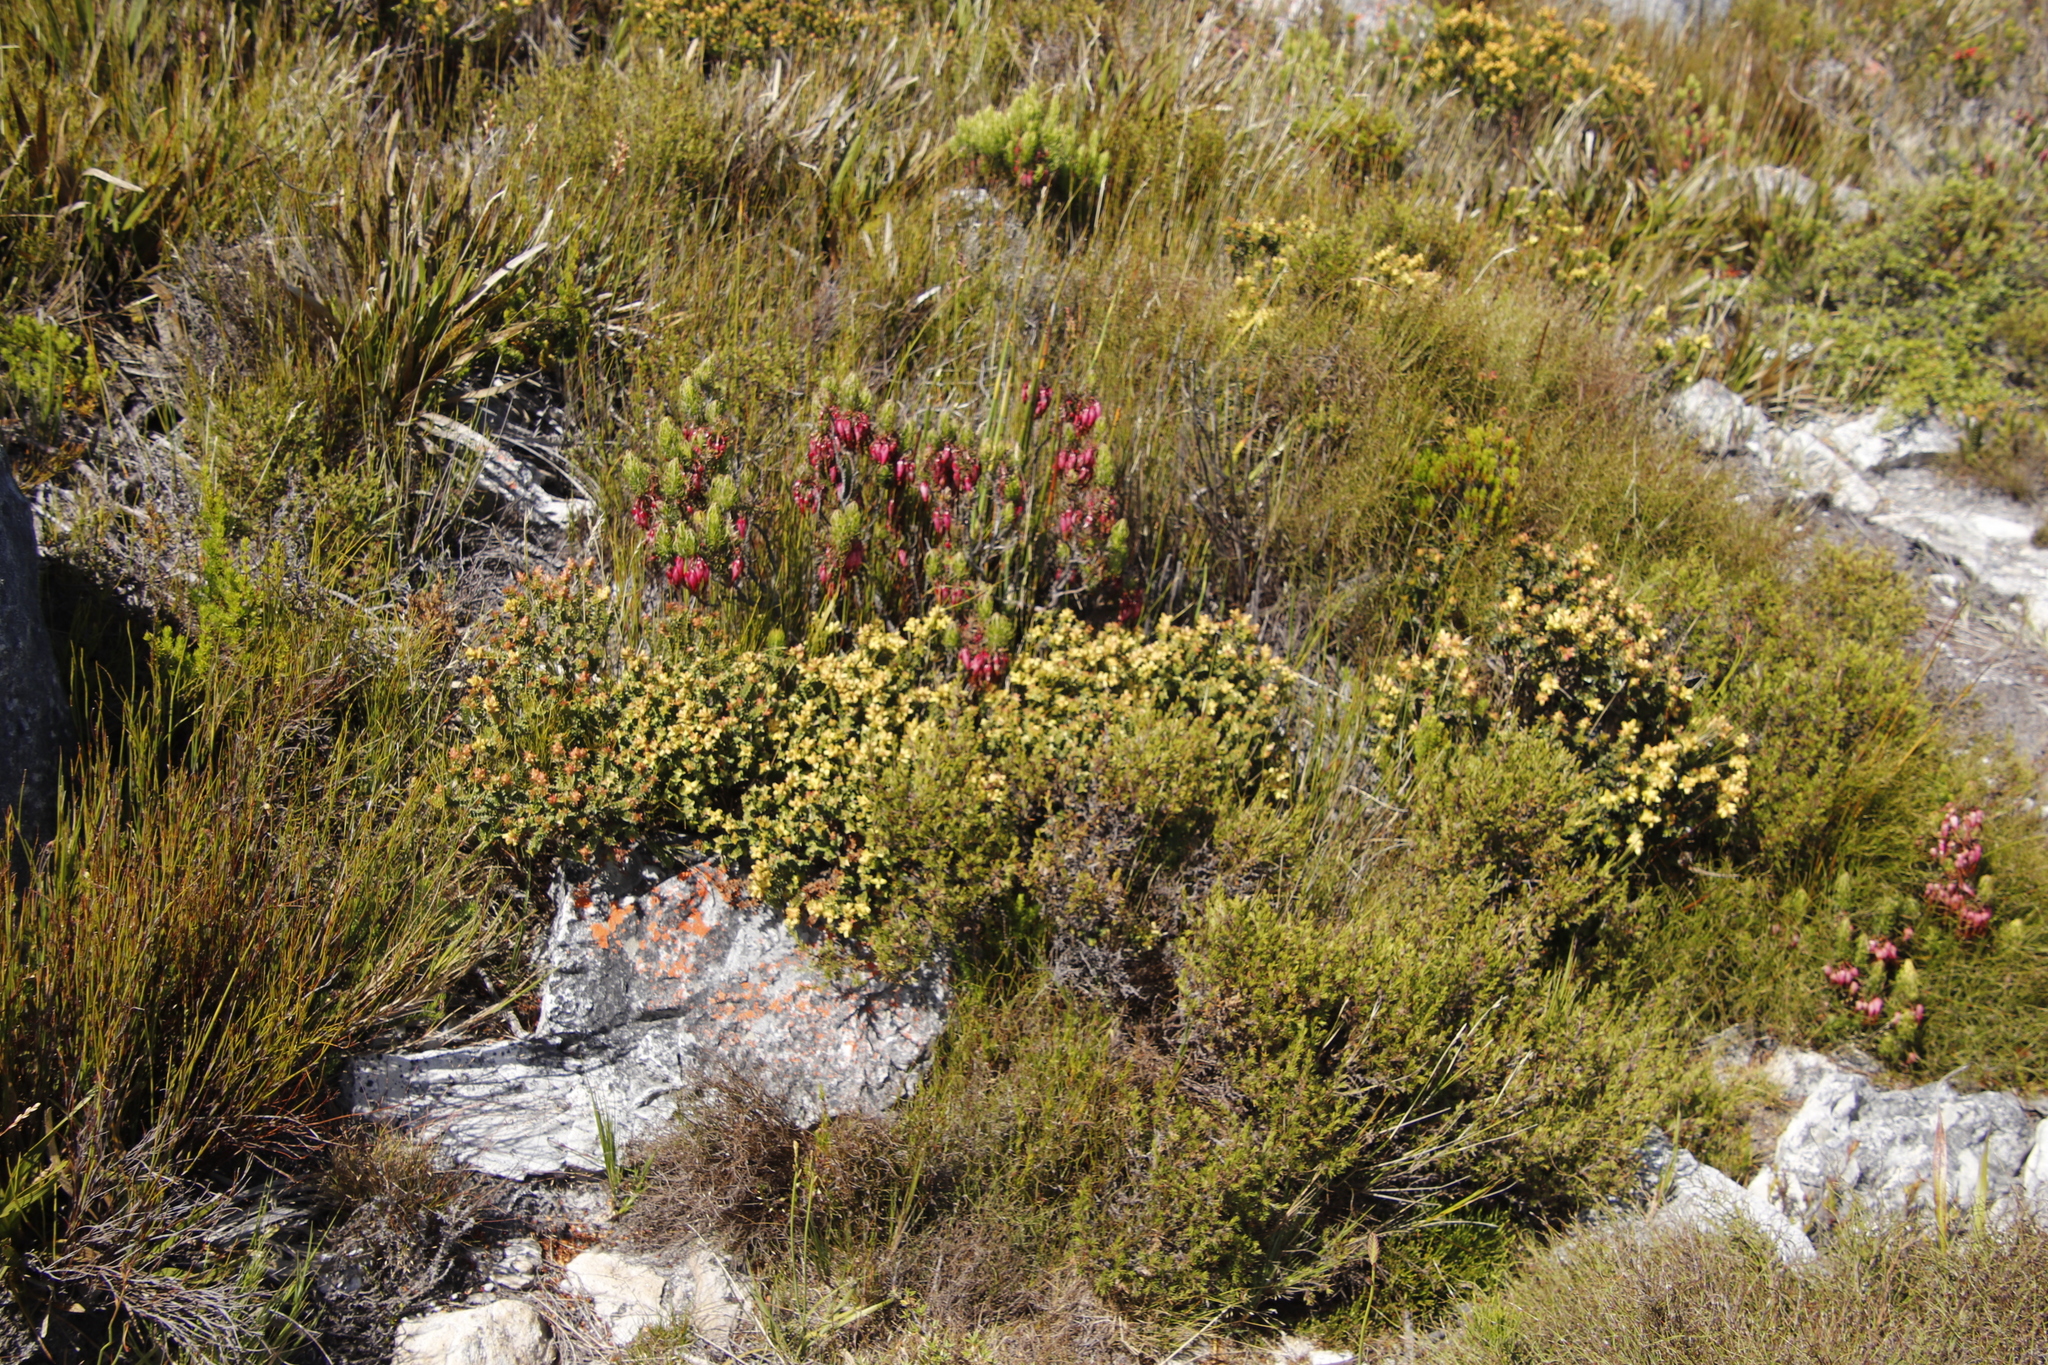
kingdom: Plantae
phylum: Tracheophyta
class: Magnoliopsida
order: Myrtales
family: Penaeaceae
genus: Penaea
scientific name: Penaea mucronata
